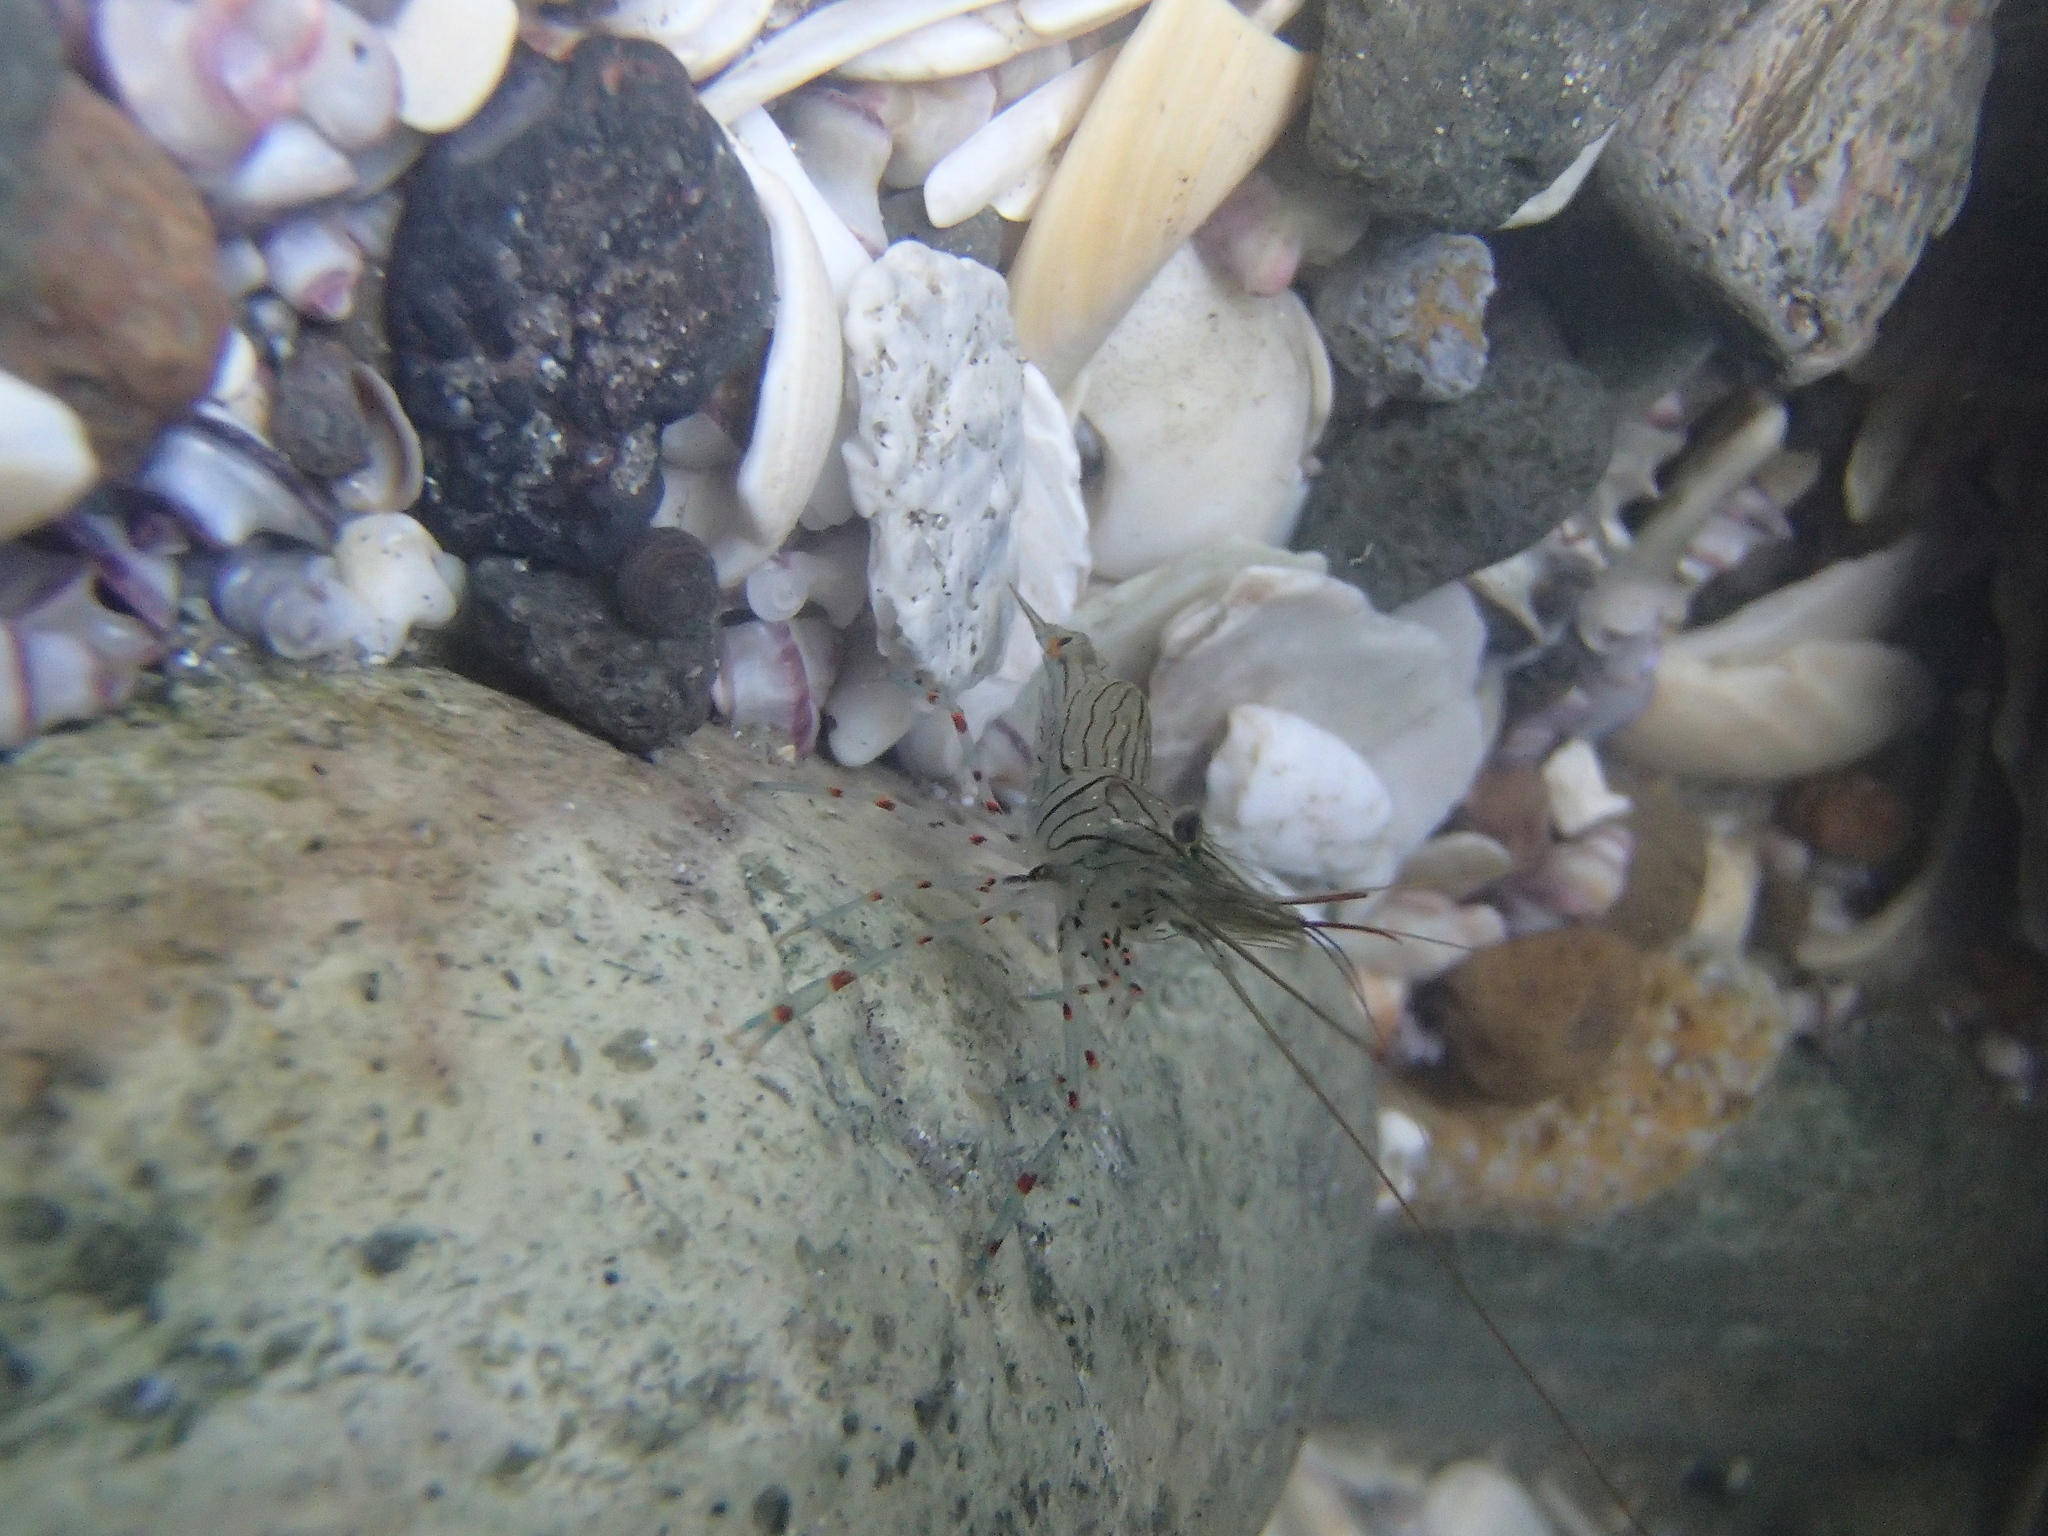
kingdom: Animalia
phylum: Arthropoda
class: Malacostraca
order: Decapoda
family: Palaemonidae
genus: Palaemon
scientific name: Palaemon affinis
